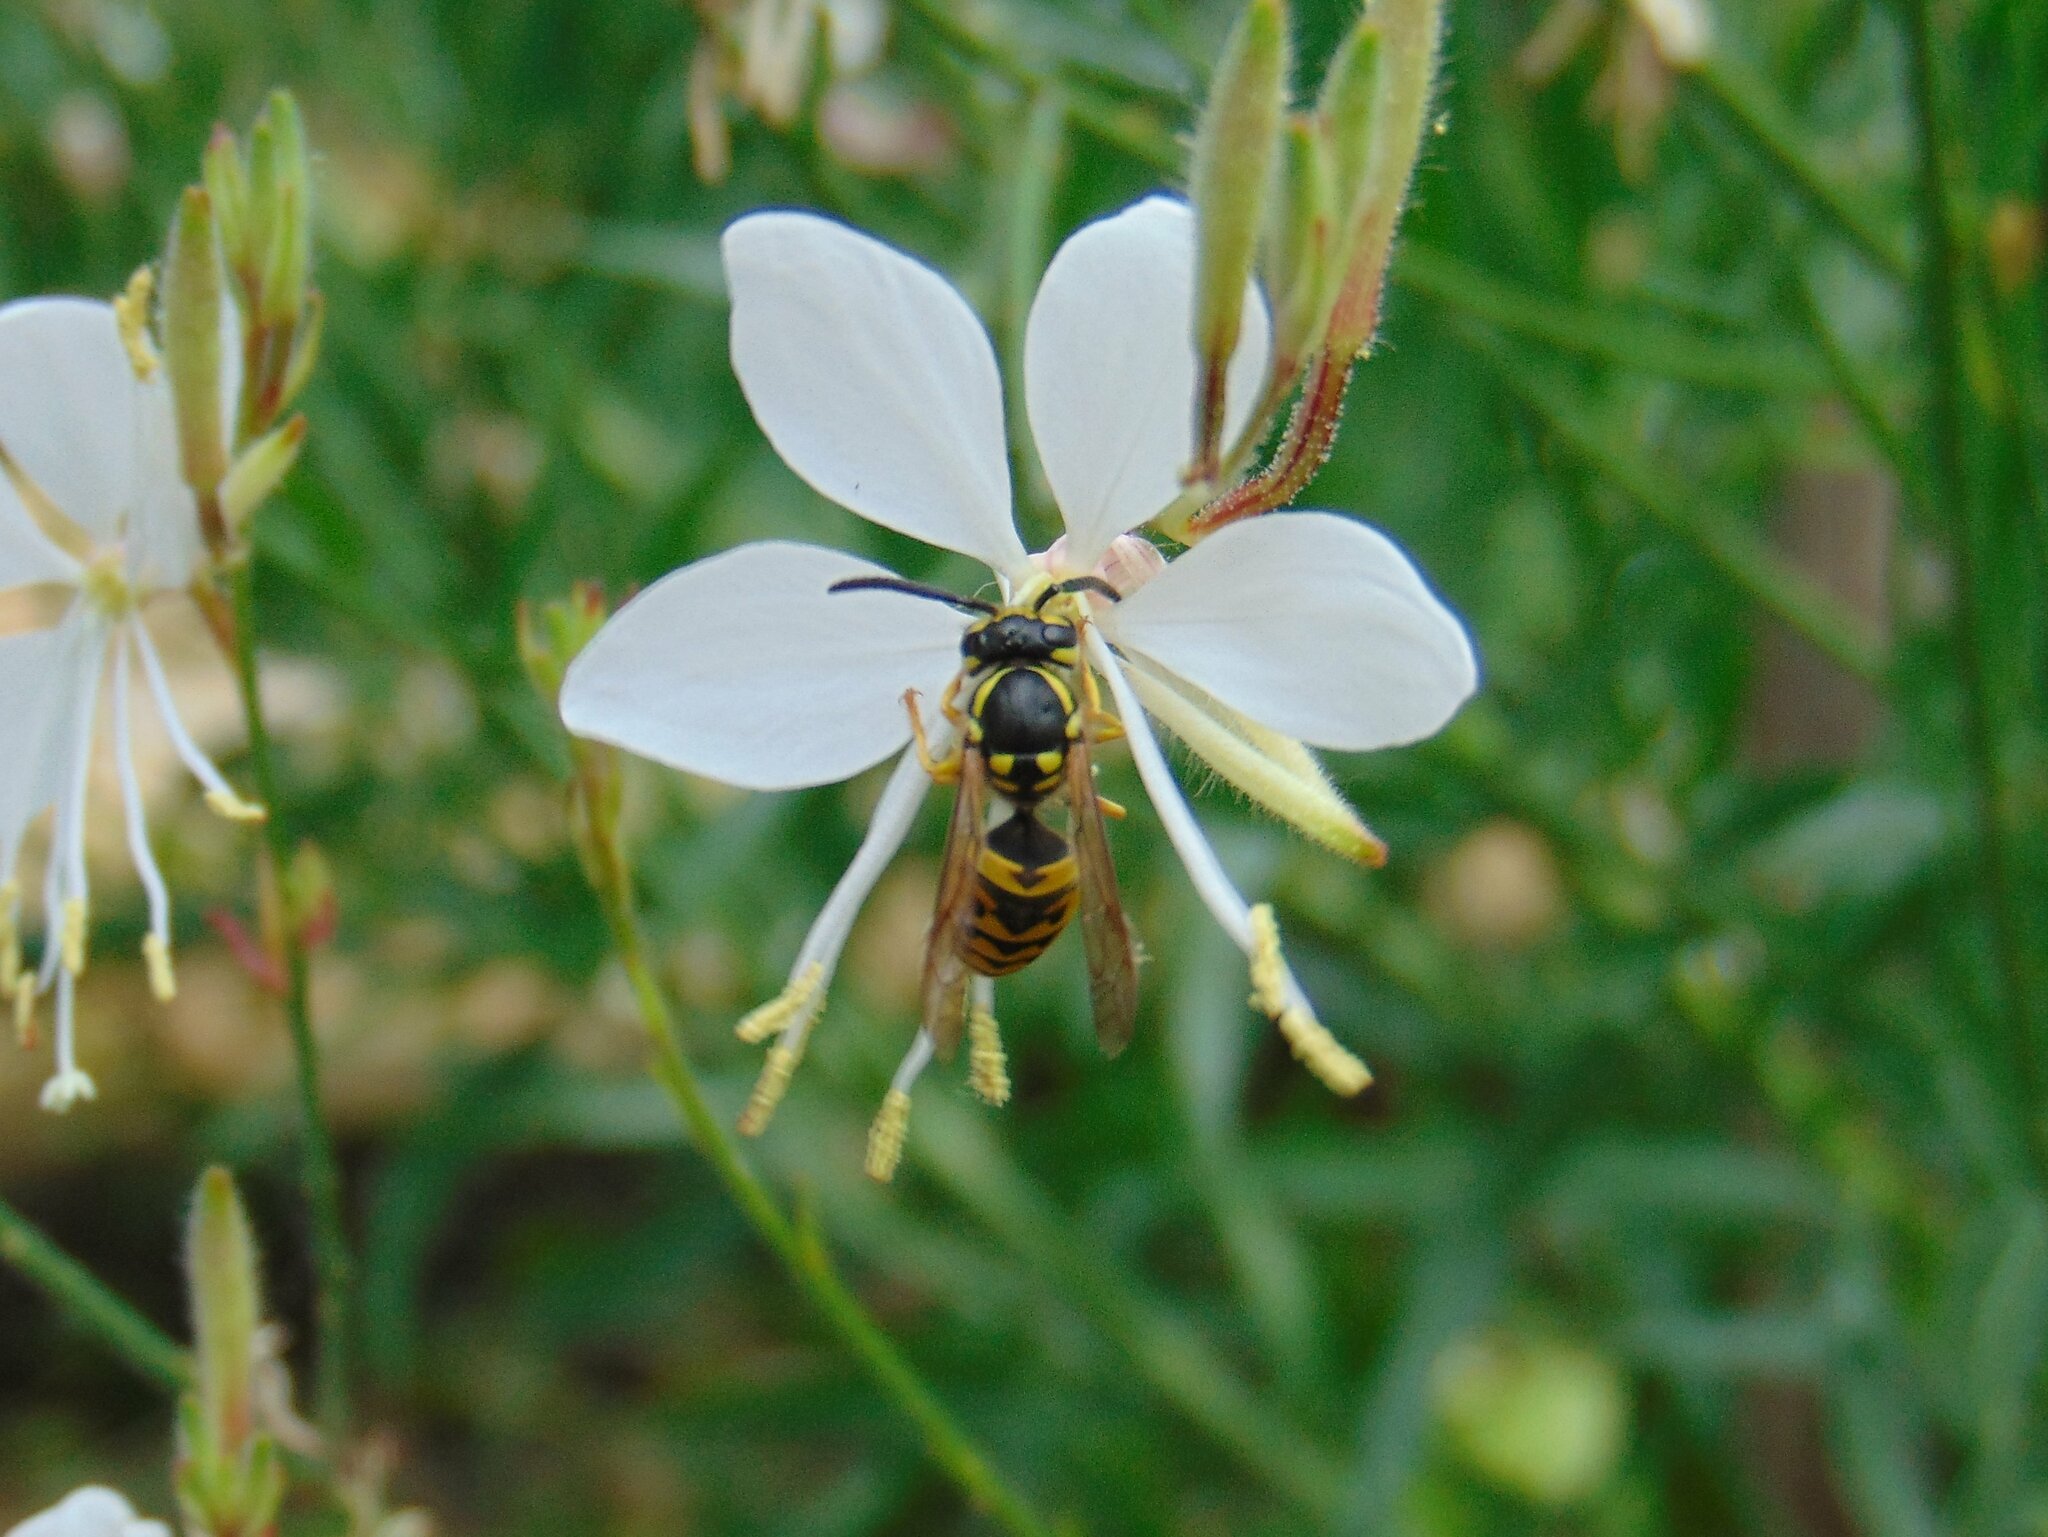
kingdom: Animalia
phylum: Arthropoda
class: Insecta
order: Hymenoptera
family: Vespidae
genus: Vespula
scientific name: Vespula germanica
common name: German wasp
